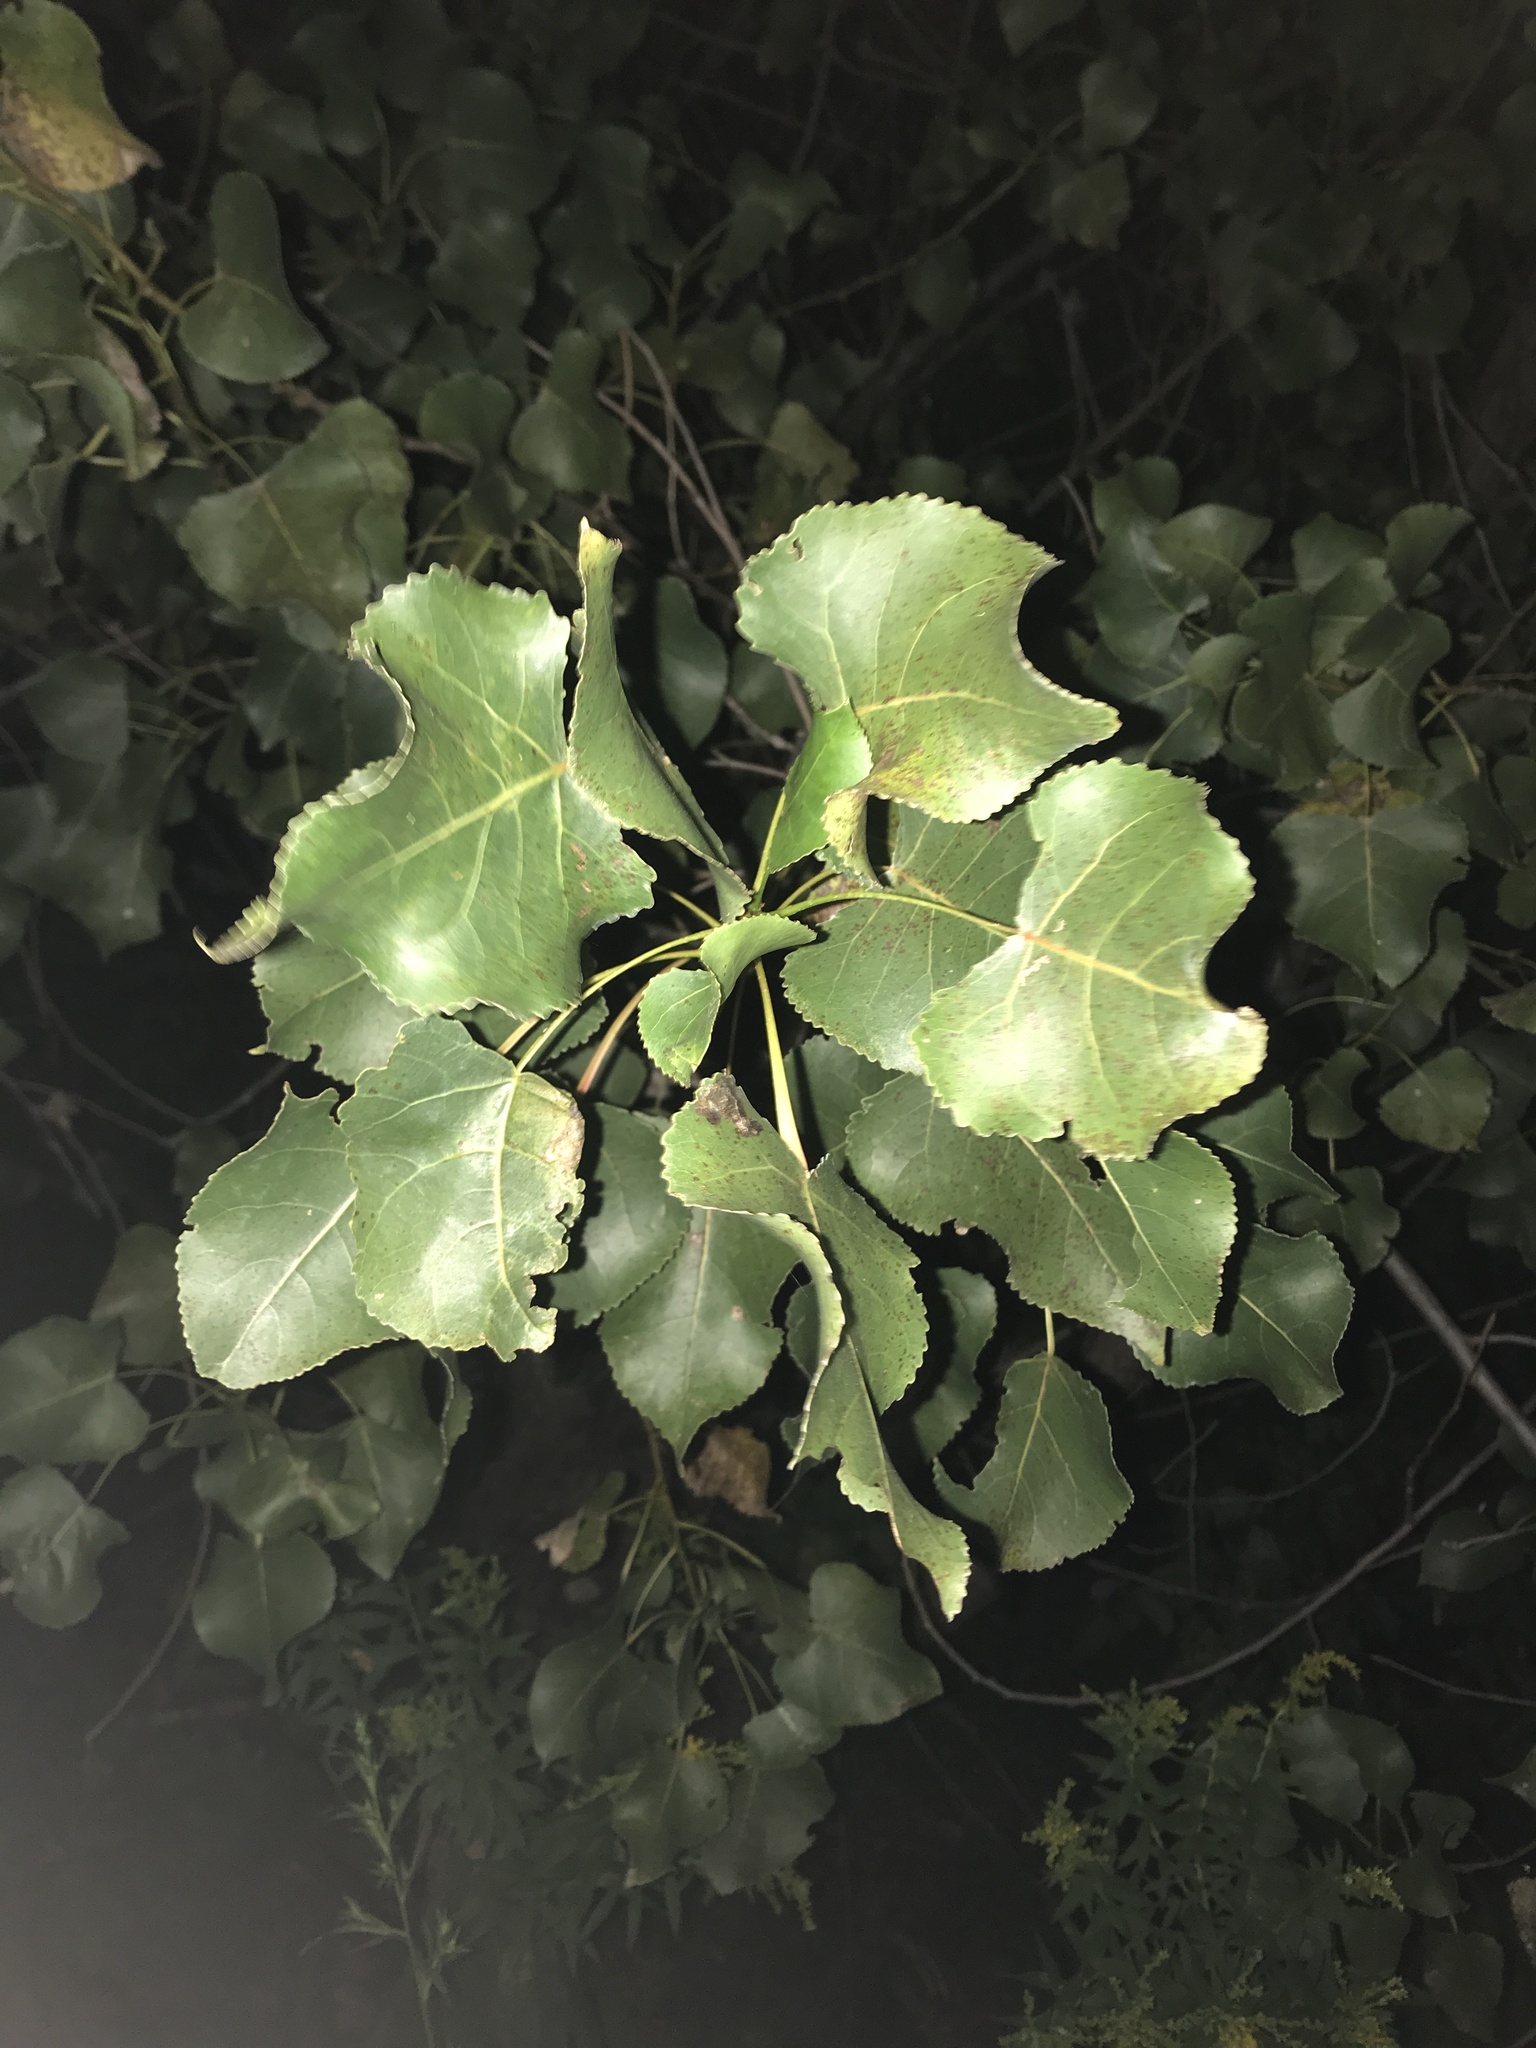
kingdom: Plantae
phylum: Tracheophyta
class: Magnoliopsida
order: Malpighiales
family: Salicaceae
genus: Populus
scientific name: Populus deltoides
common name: Eastern cottonwood
